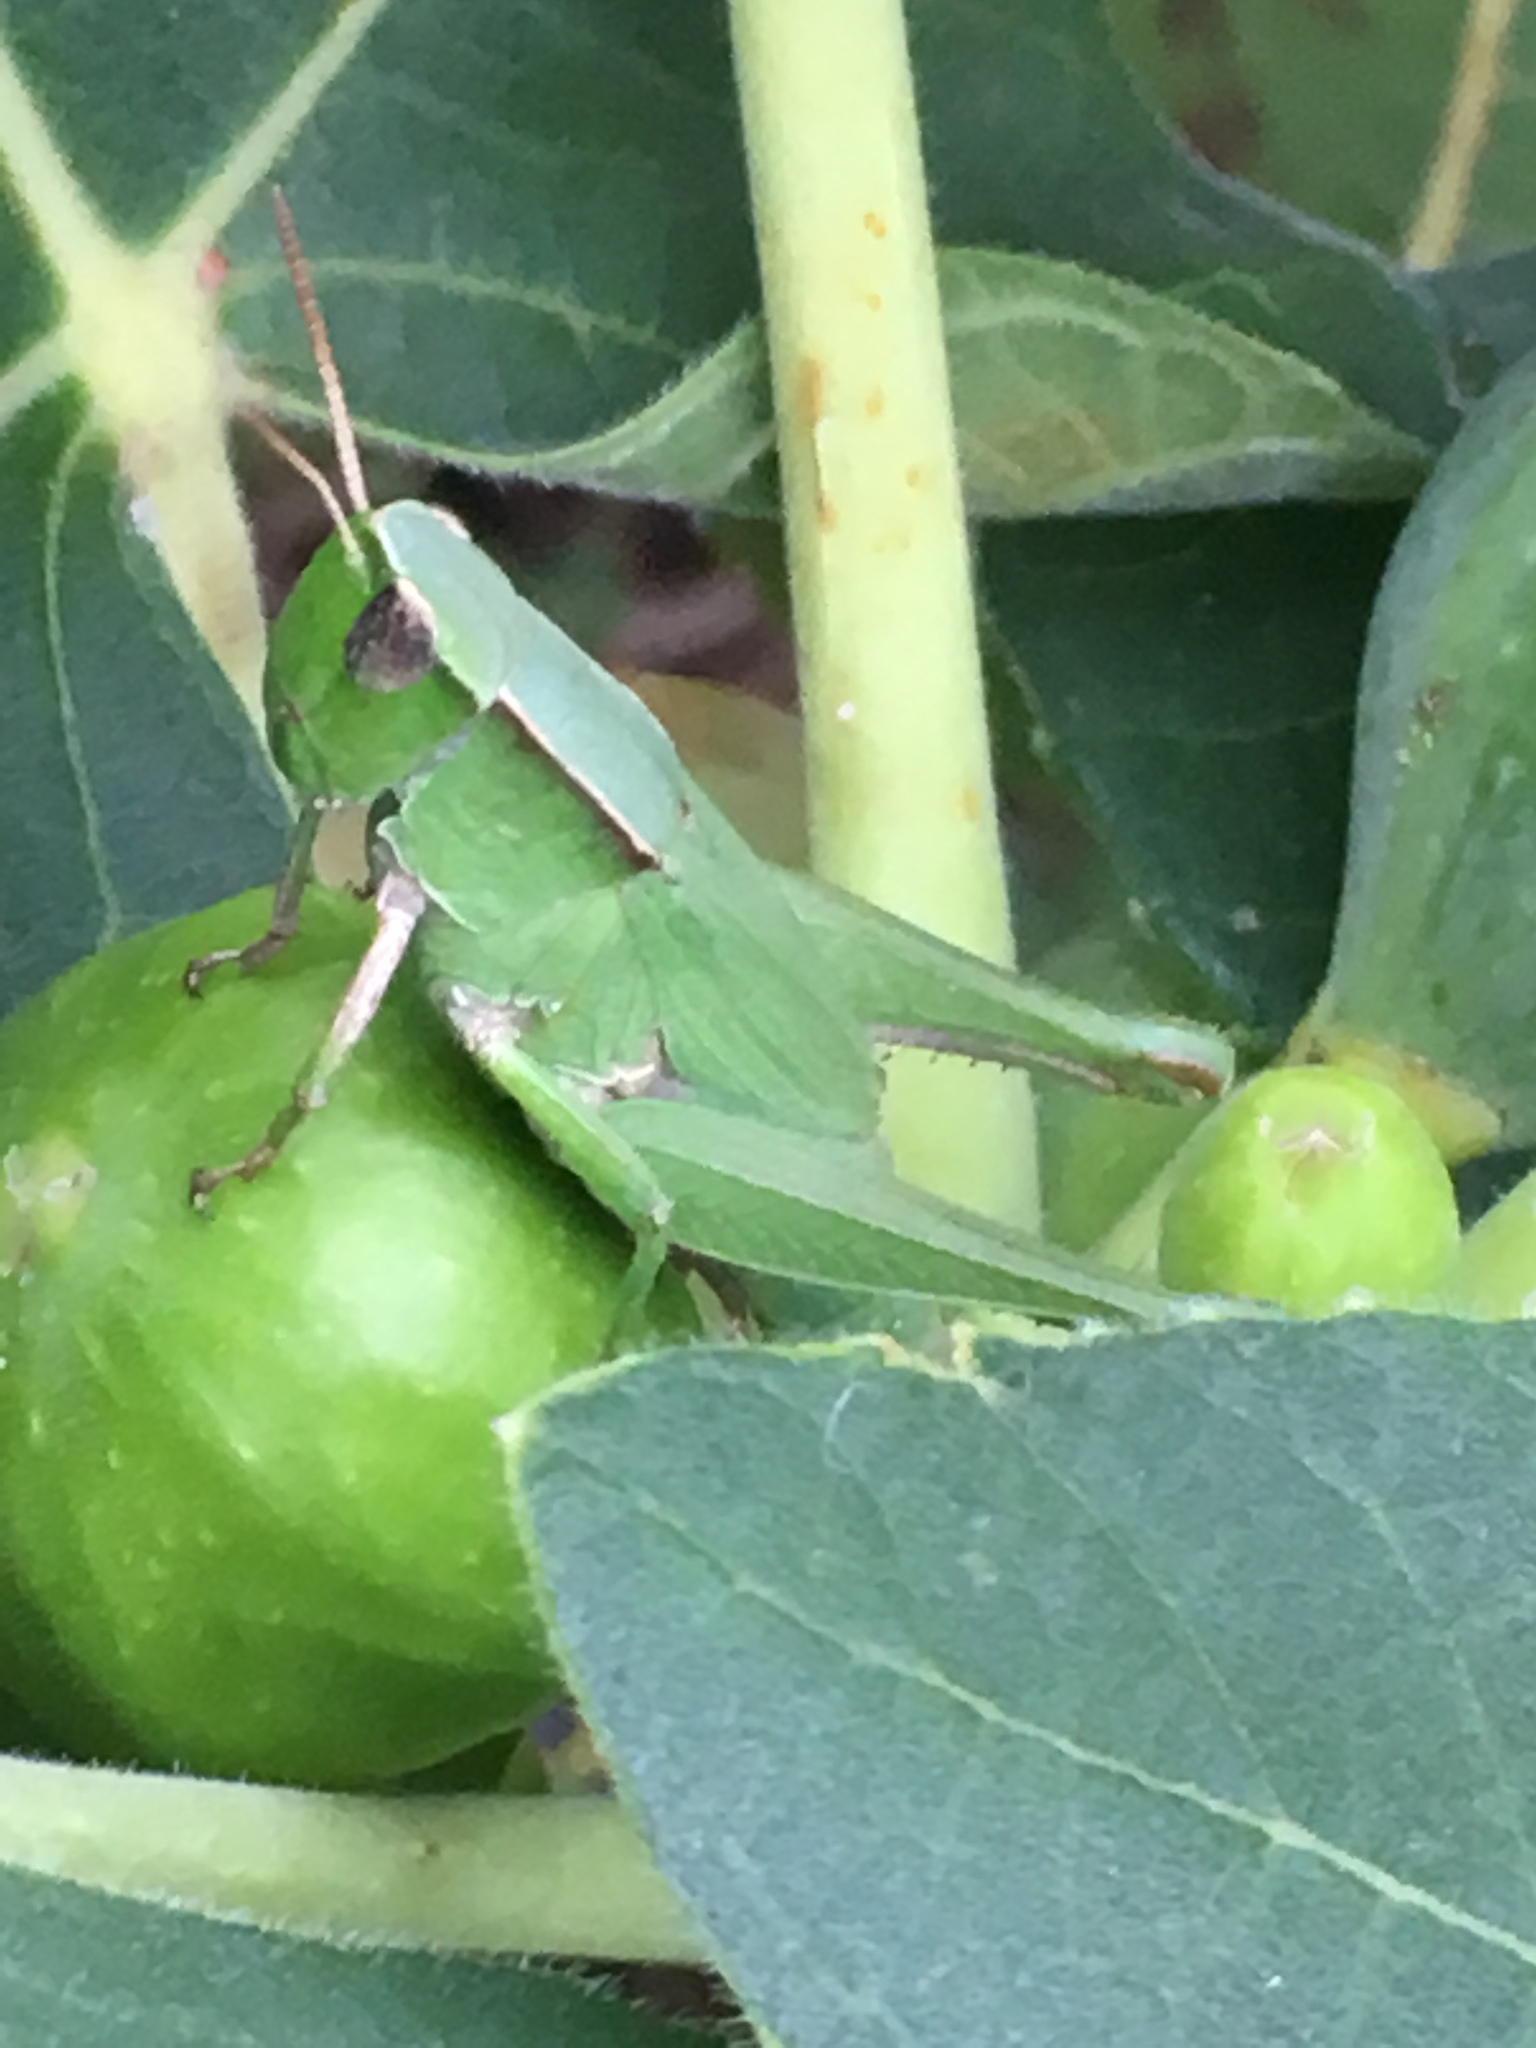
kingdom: Animalia
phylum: Arthropoda
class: Insecta
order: Orthoptera
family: Acrididae
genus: Dichromorpha
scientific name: Dichromorpha viridis
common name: Short-winged green grasshopper
